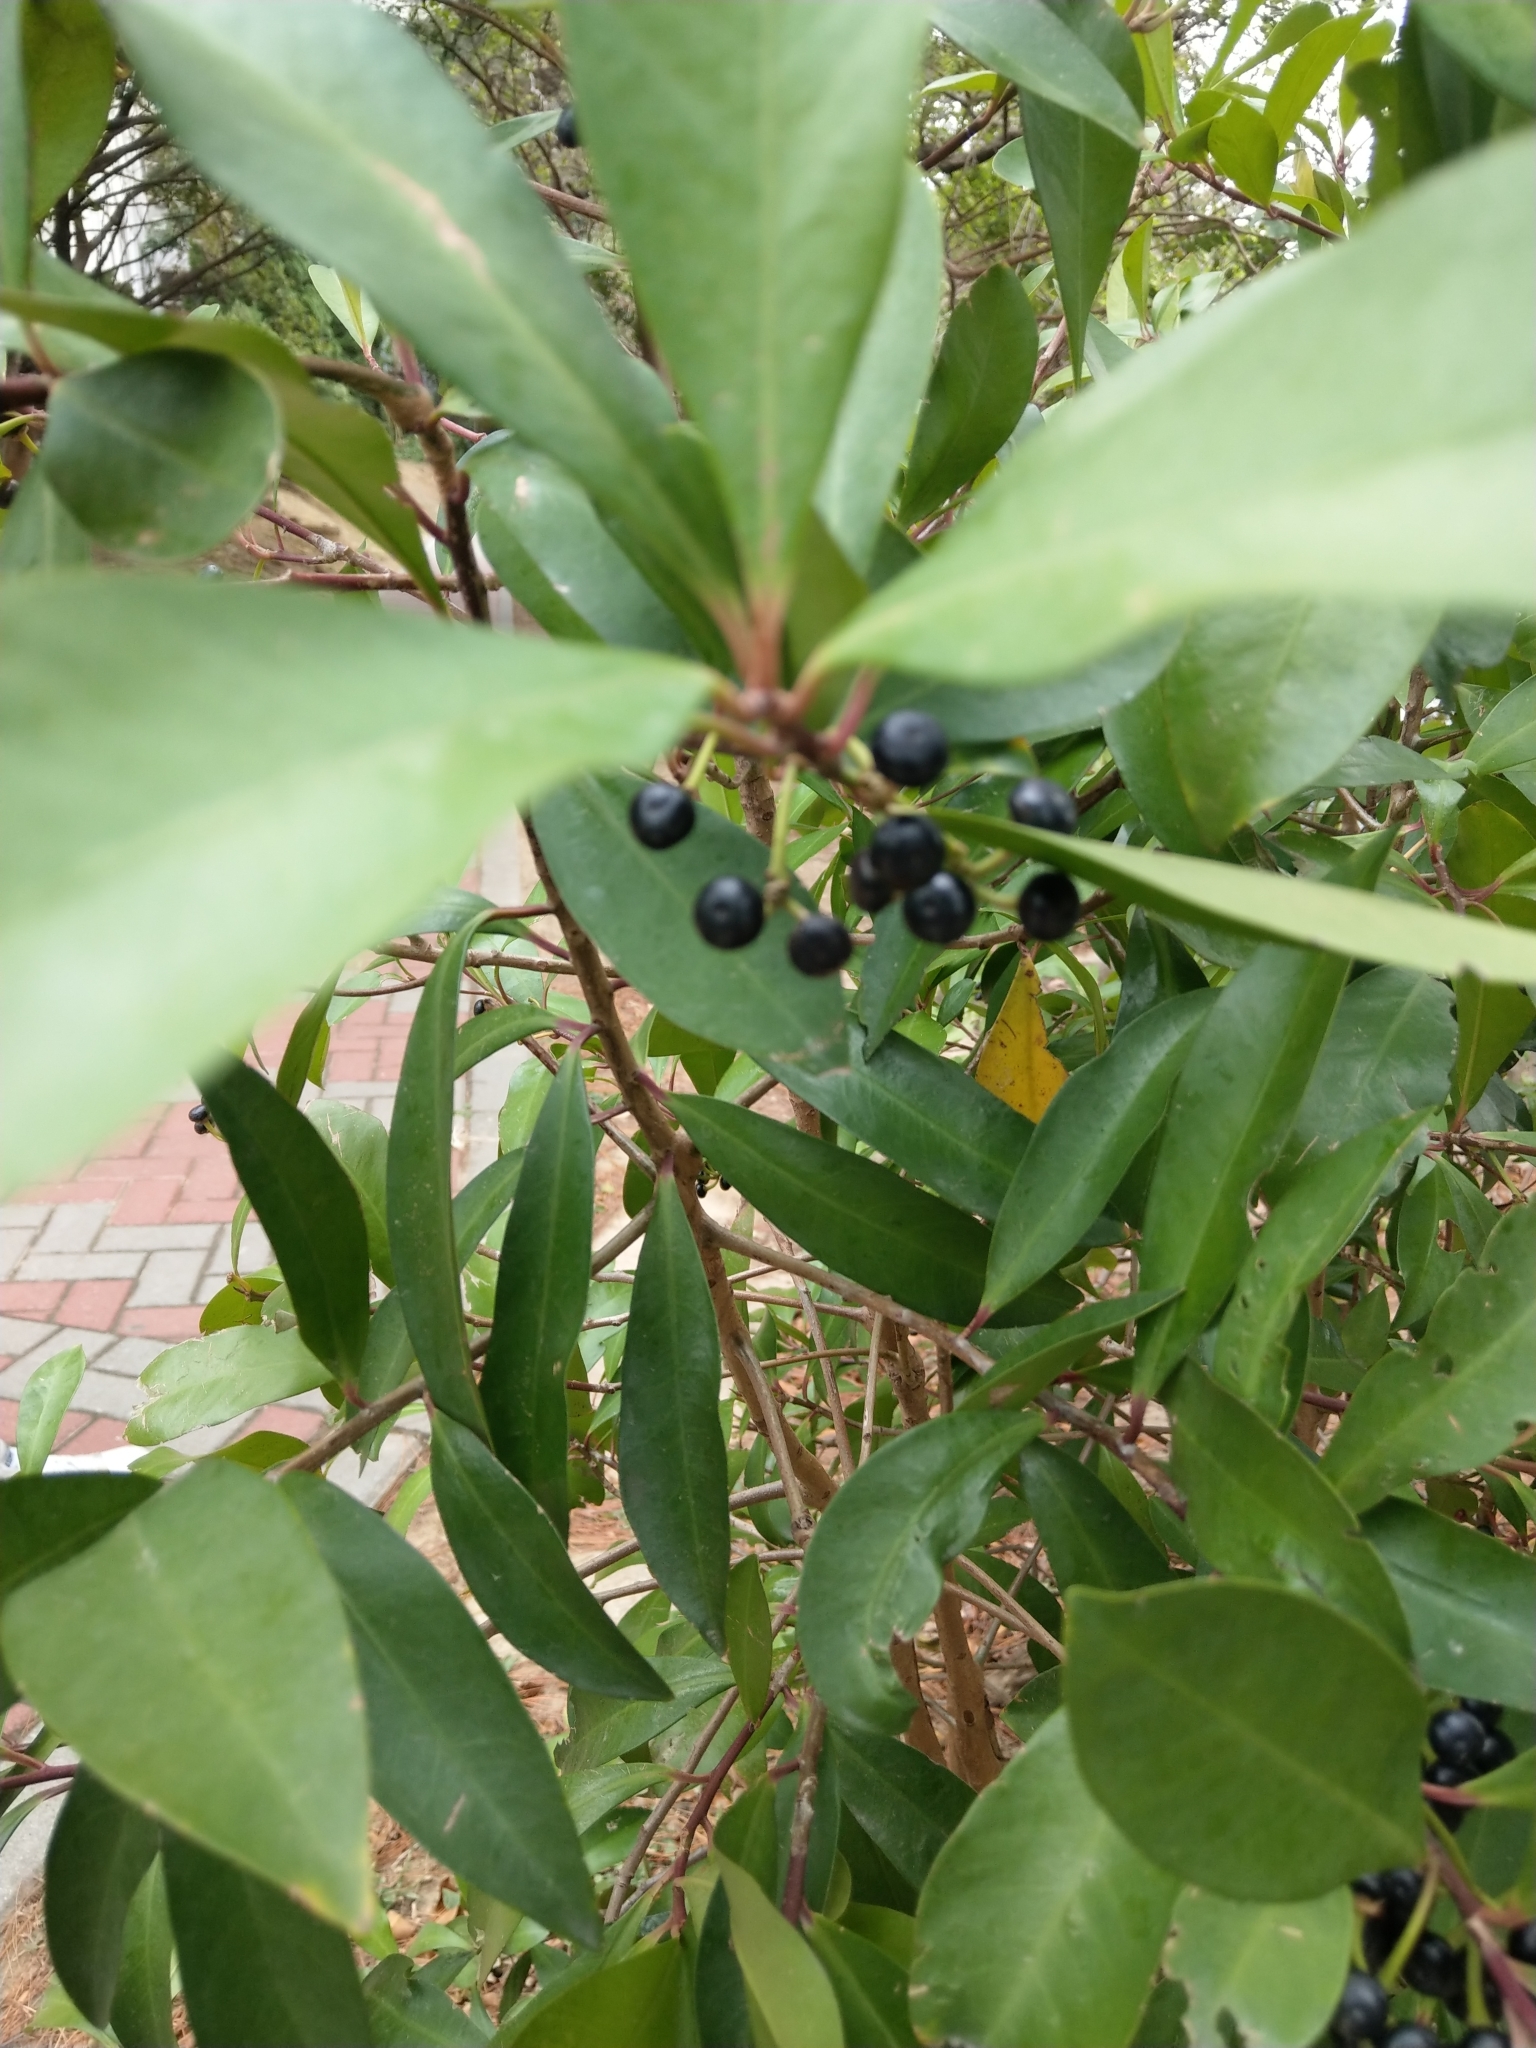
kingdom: Plantae
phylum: Tracheophyta
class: Magnoliopsida
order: Ericales
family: Primulaceae
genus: Ardisia
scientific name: Ardisia elliptica
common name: Shoebutton
